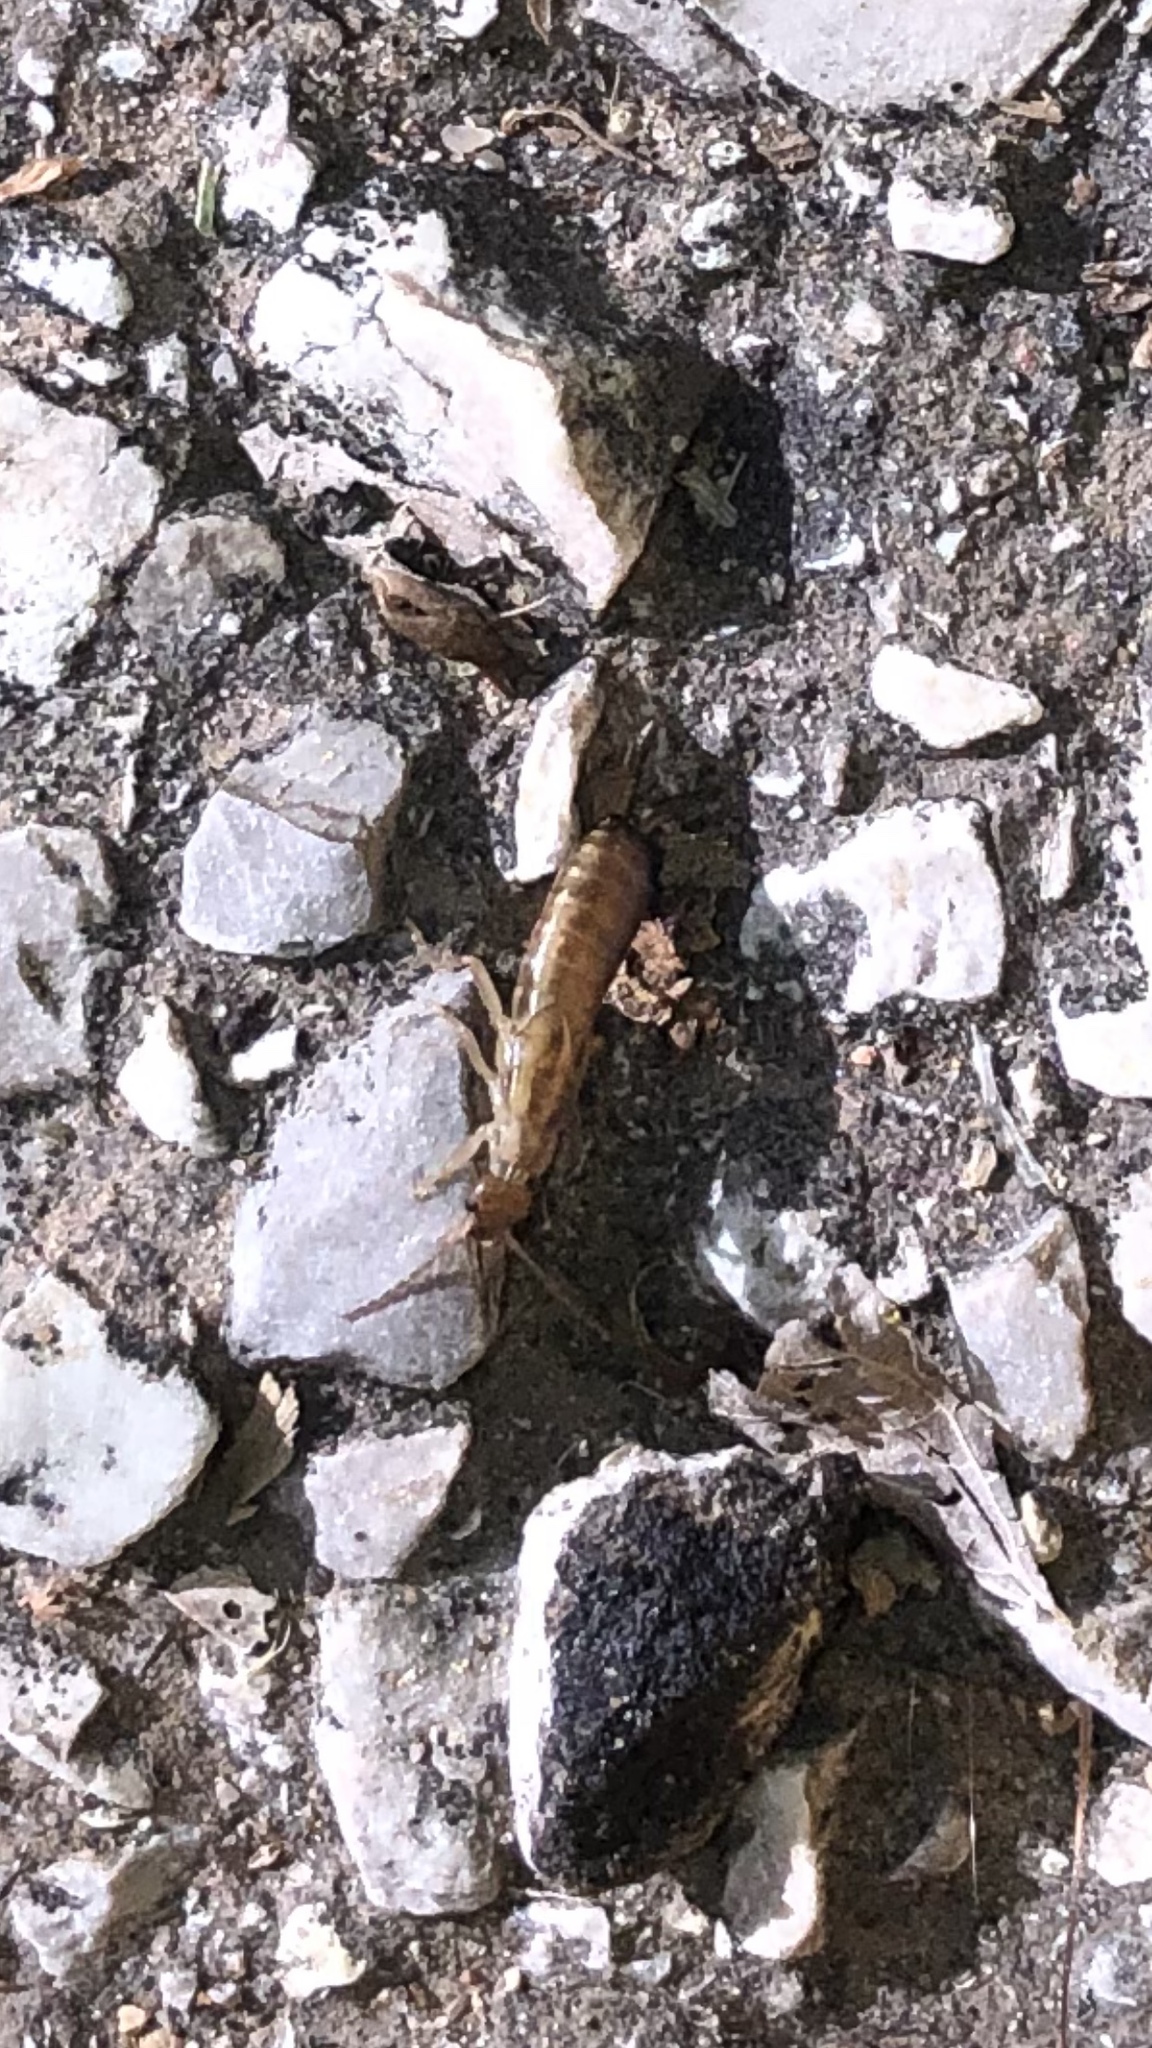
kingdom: Animalia
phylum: Arthropoda
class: Insecta
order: Dermaptera
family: Forficulidae
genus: Forficula
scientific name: Forficula
